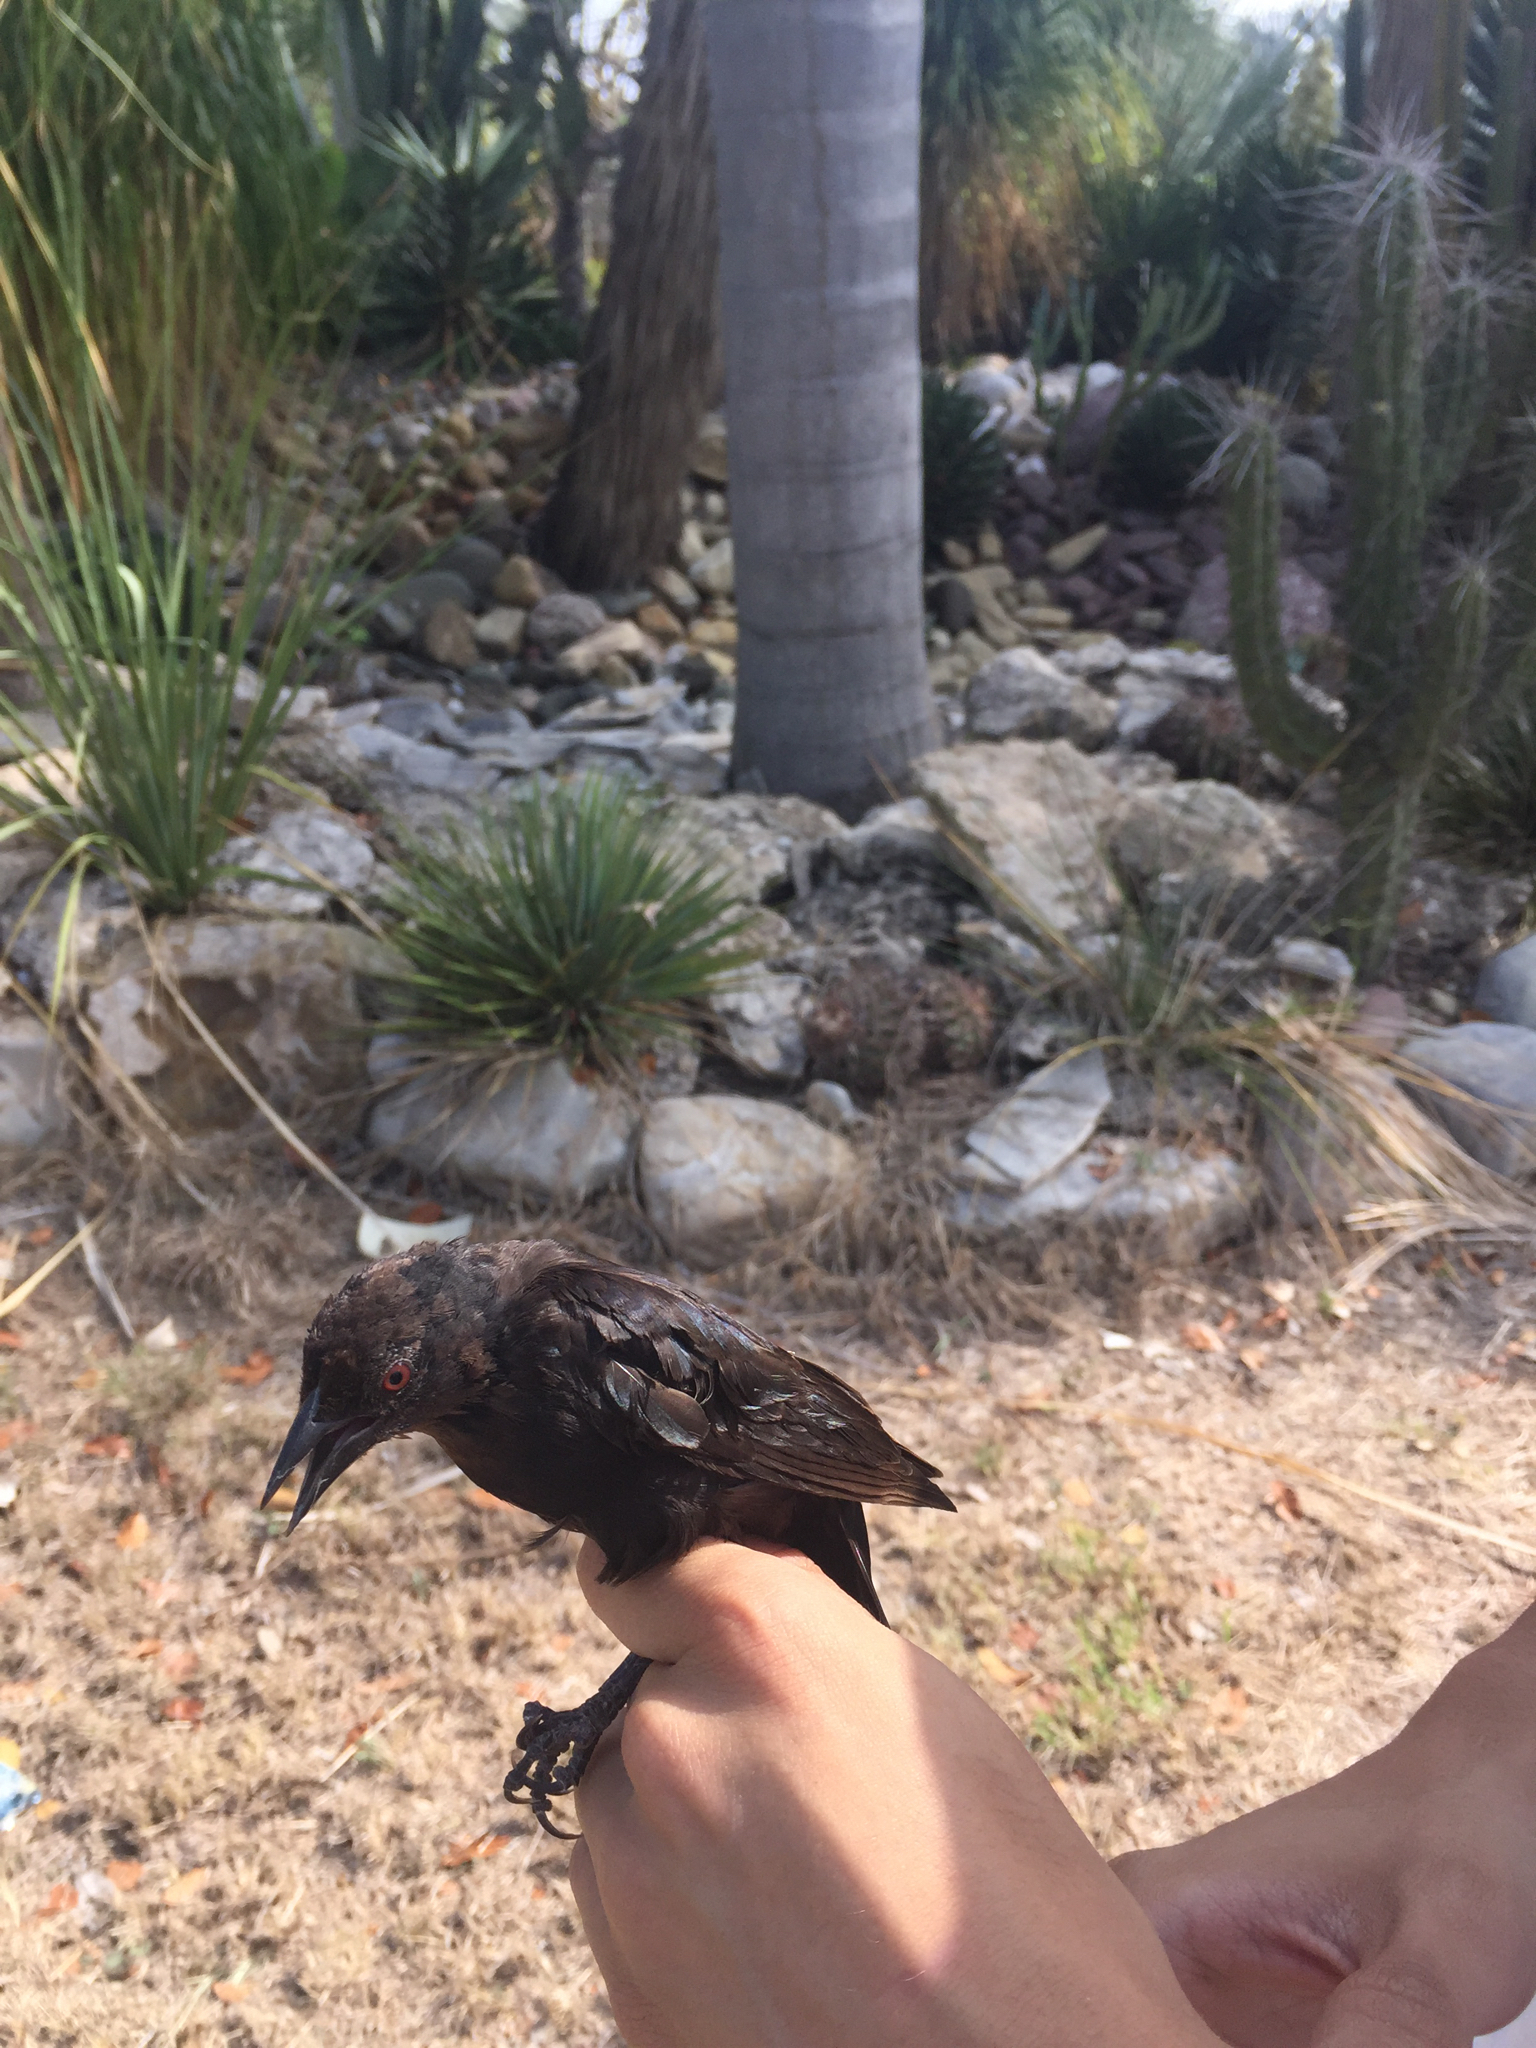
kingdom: Animalia
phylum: Chordata
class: Aves
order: Passeriformes
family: Icteridae
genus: Molothrus
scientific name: Molothrus aeneus
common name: Bronzed cowbird
